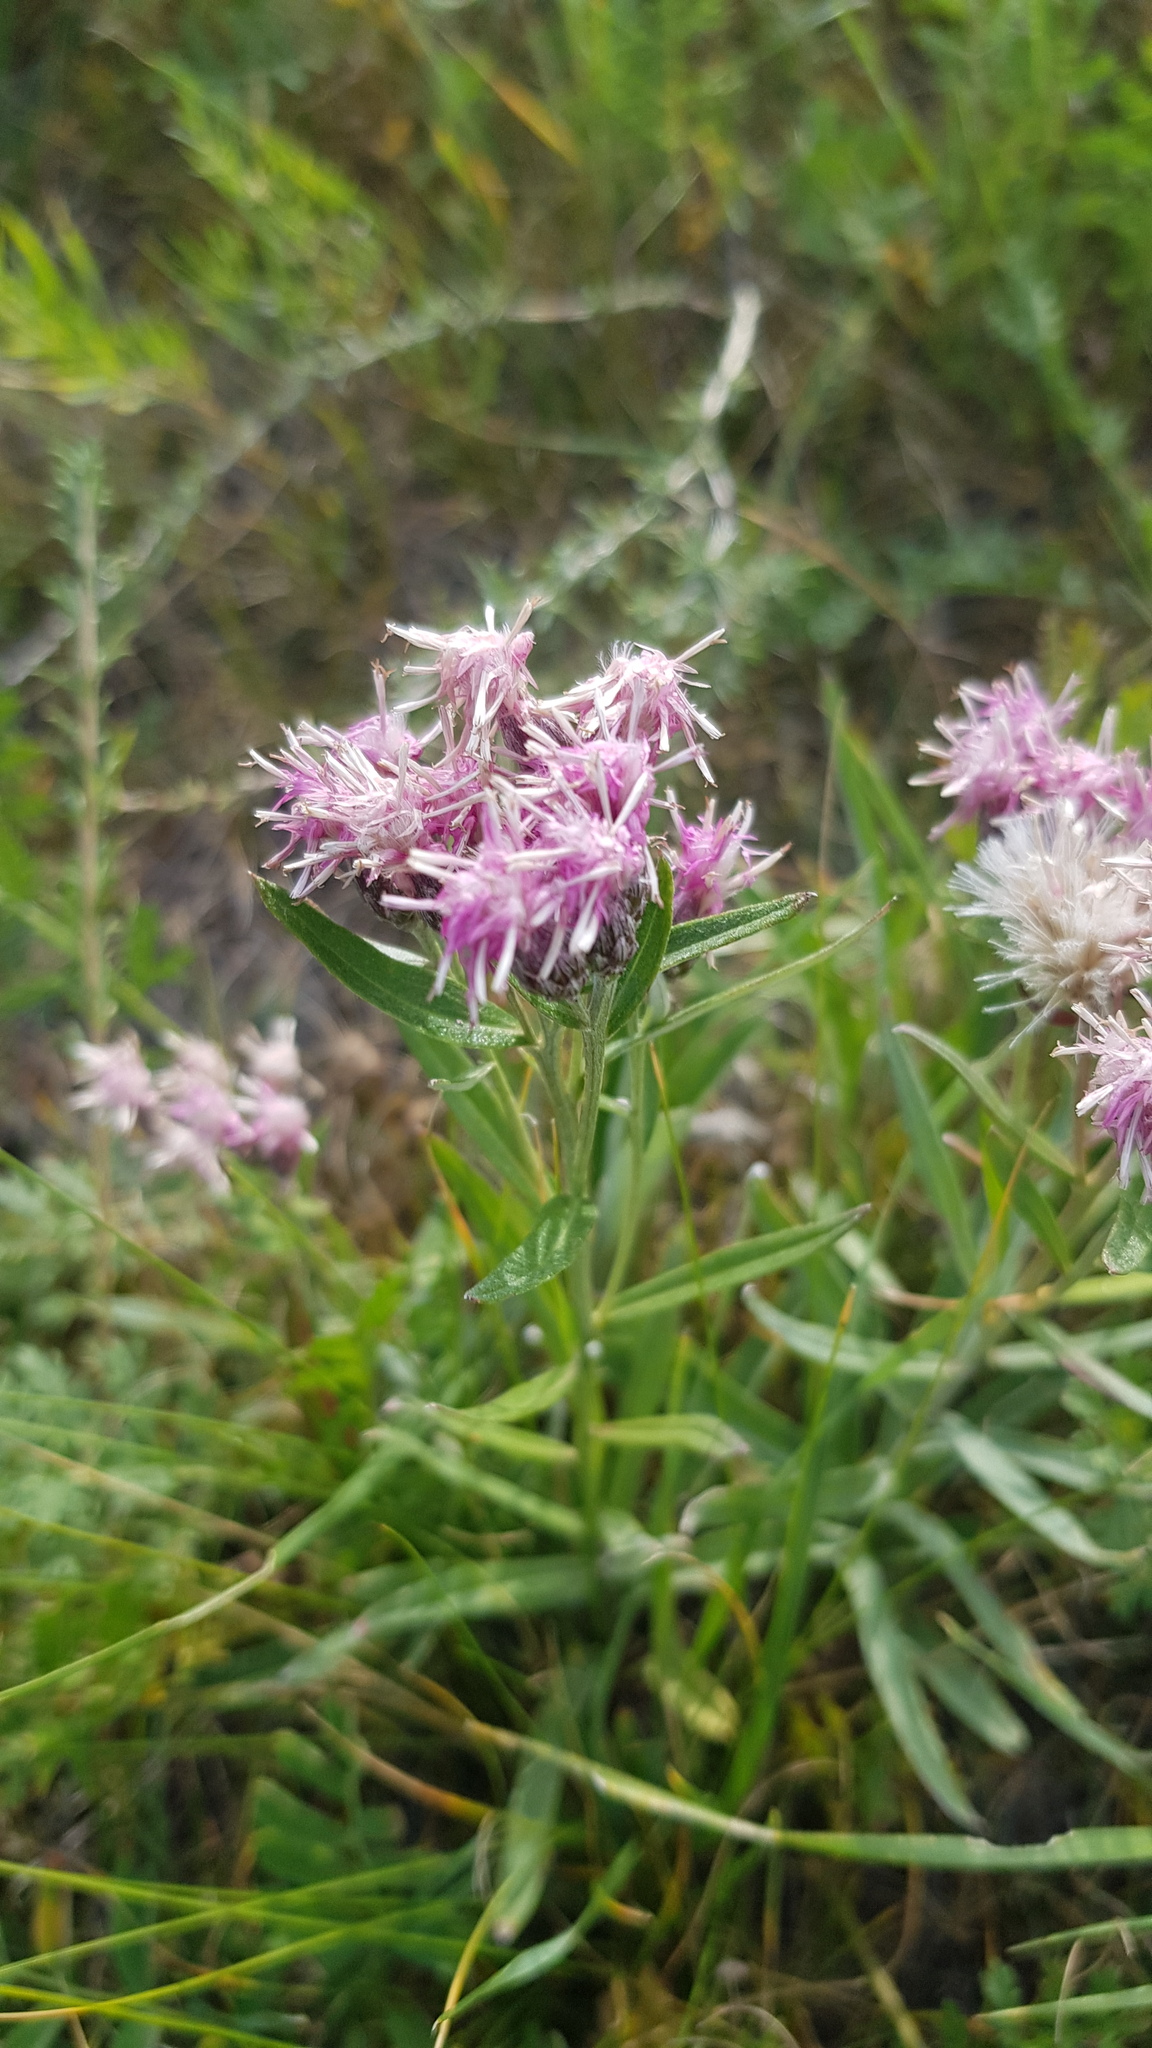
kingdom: Plantae
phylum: Tracheophyta
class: Magnoliopsida
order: Asterales
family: Asteraceae
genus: Saussurea
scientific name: Saussurea salicifolia
